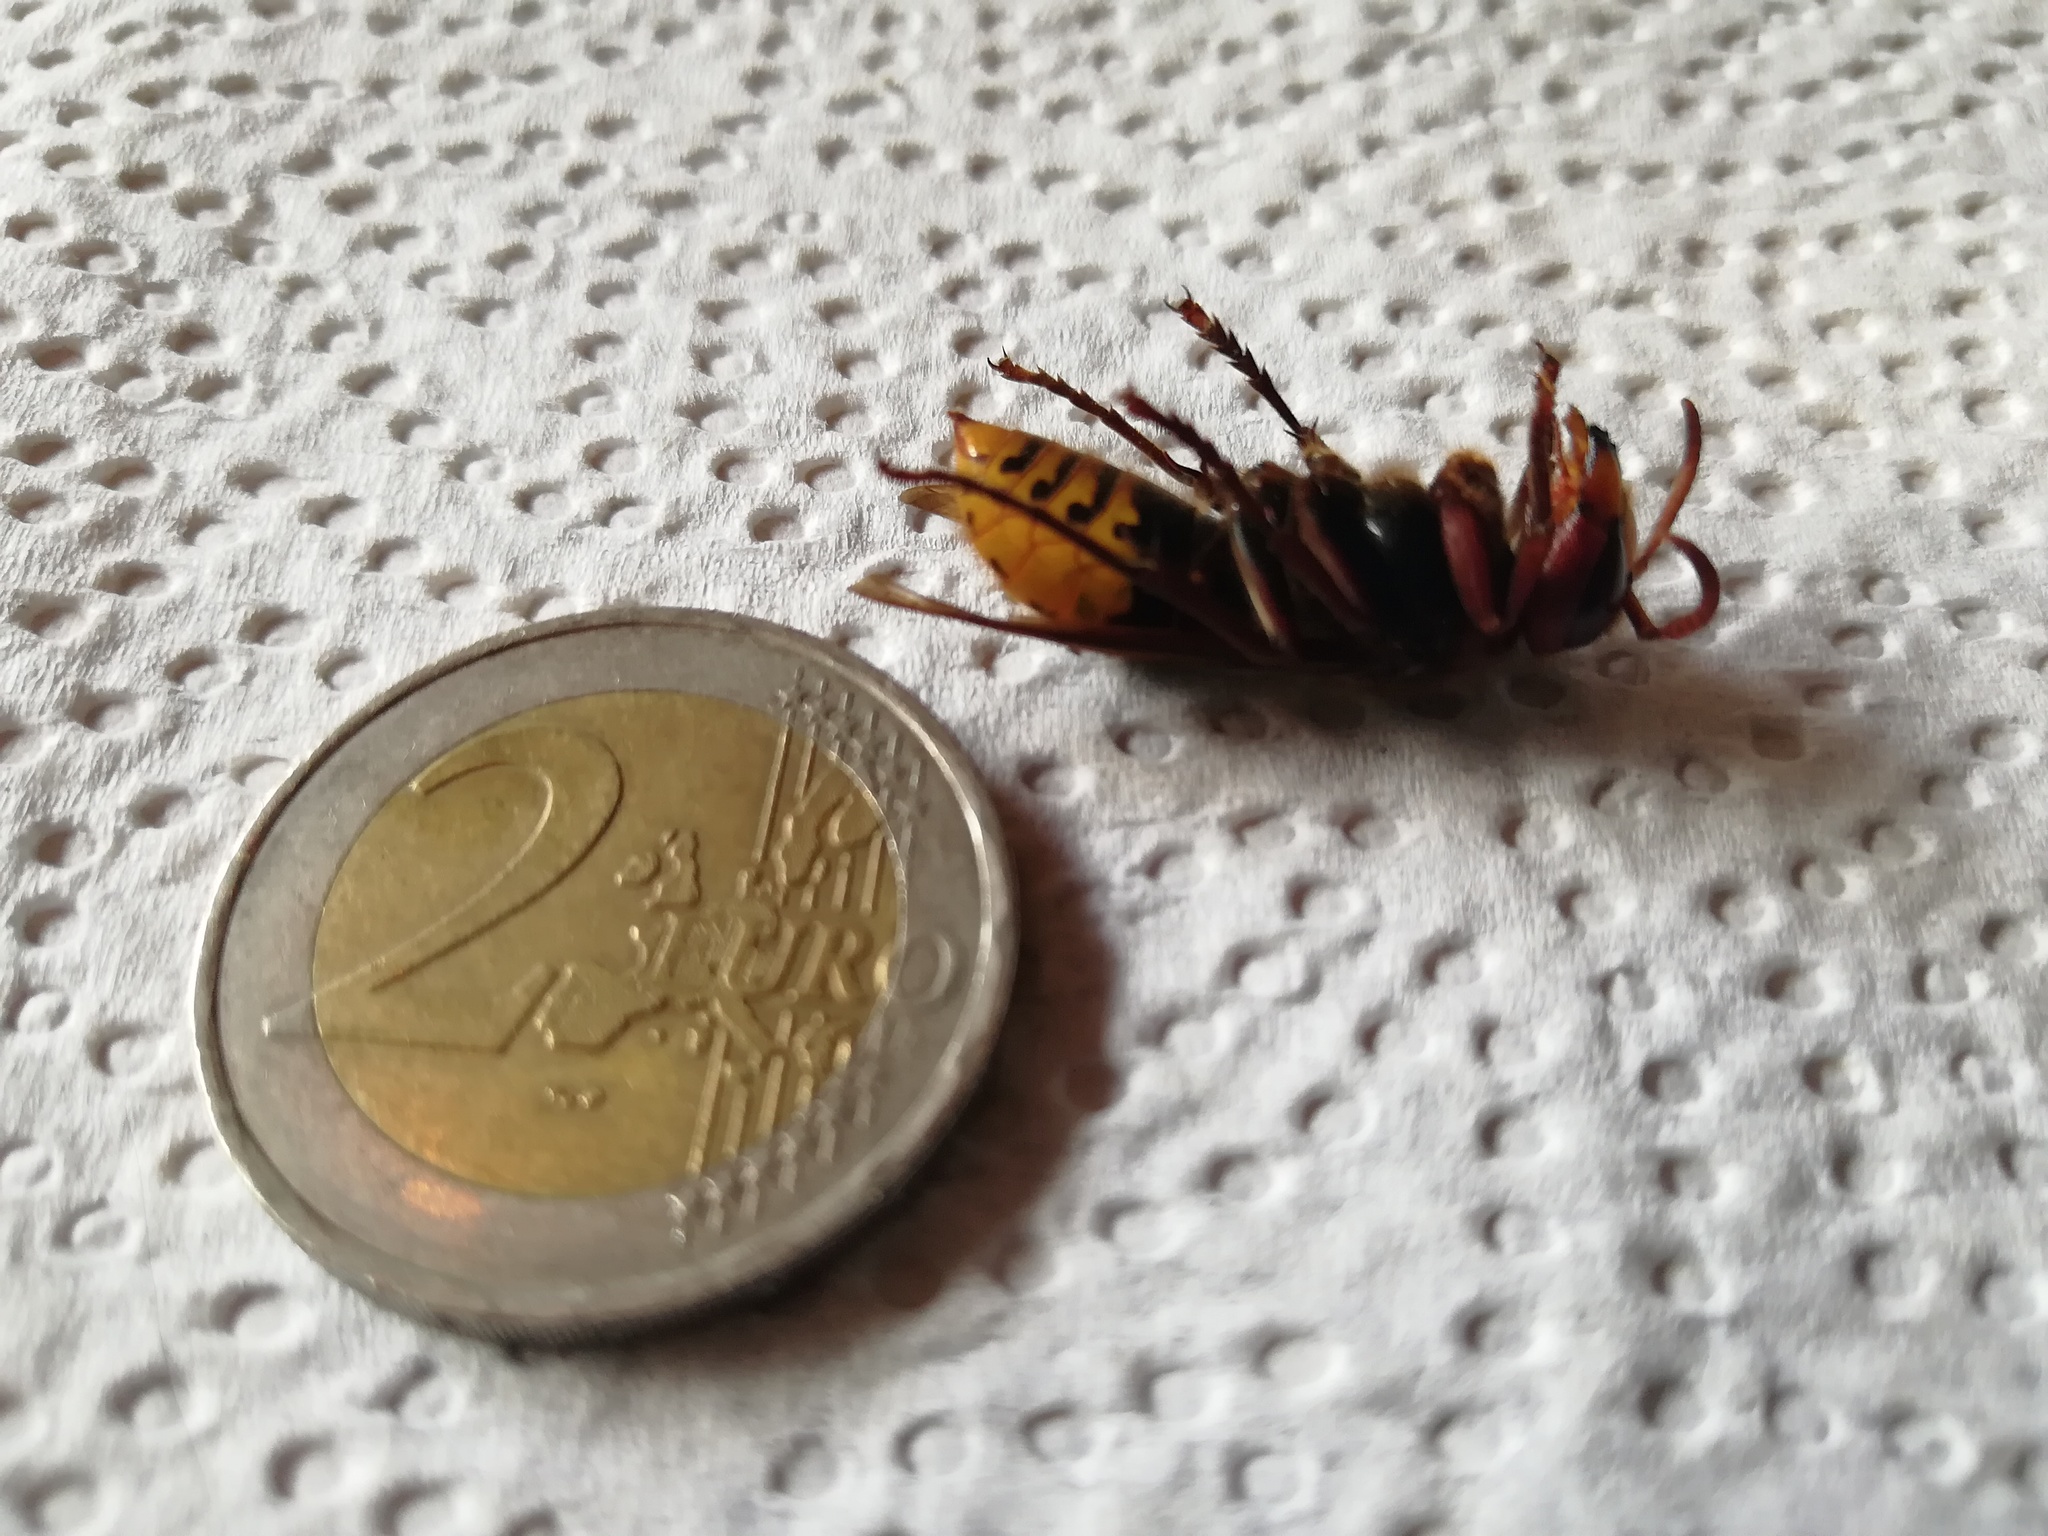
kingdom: Animalia
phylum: Arthropoda
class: Insecta
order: Hymenoptera
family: Vespidae
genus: Vespa
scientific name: Vespa crabro
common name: Hornet
